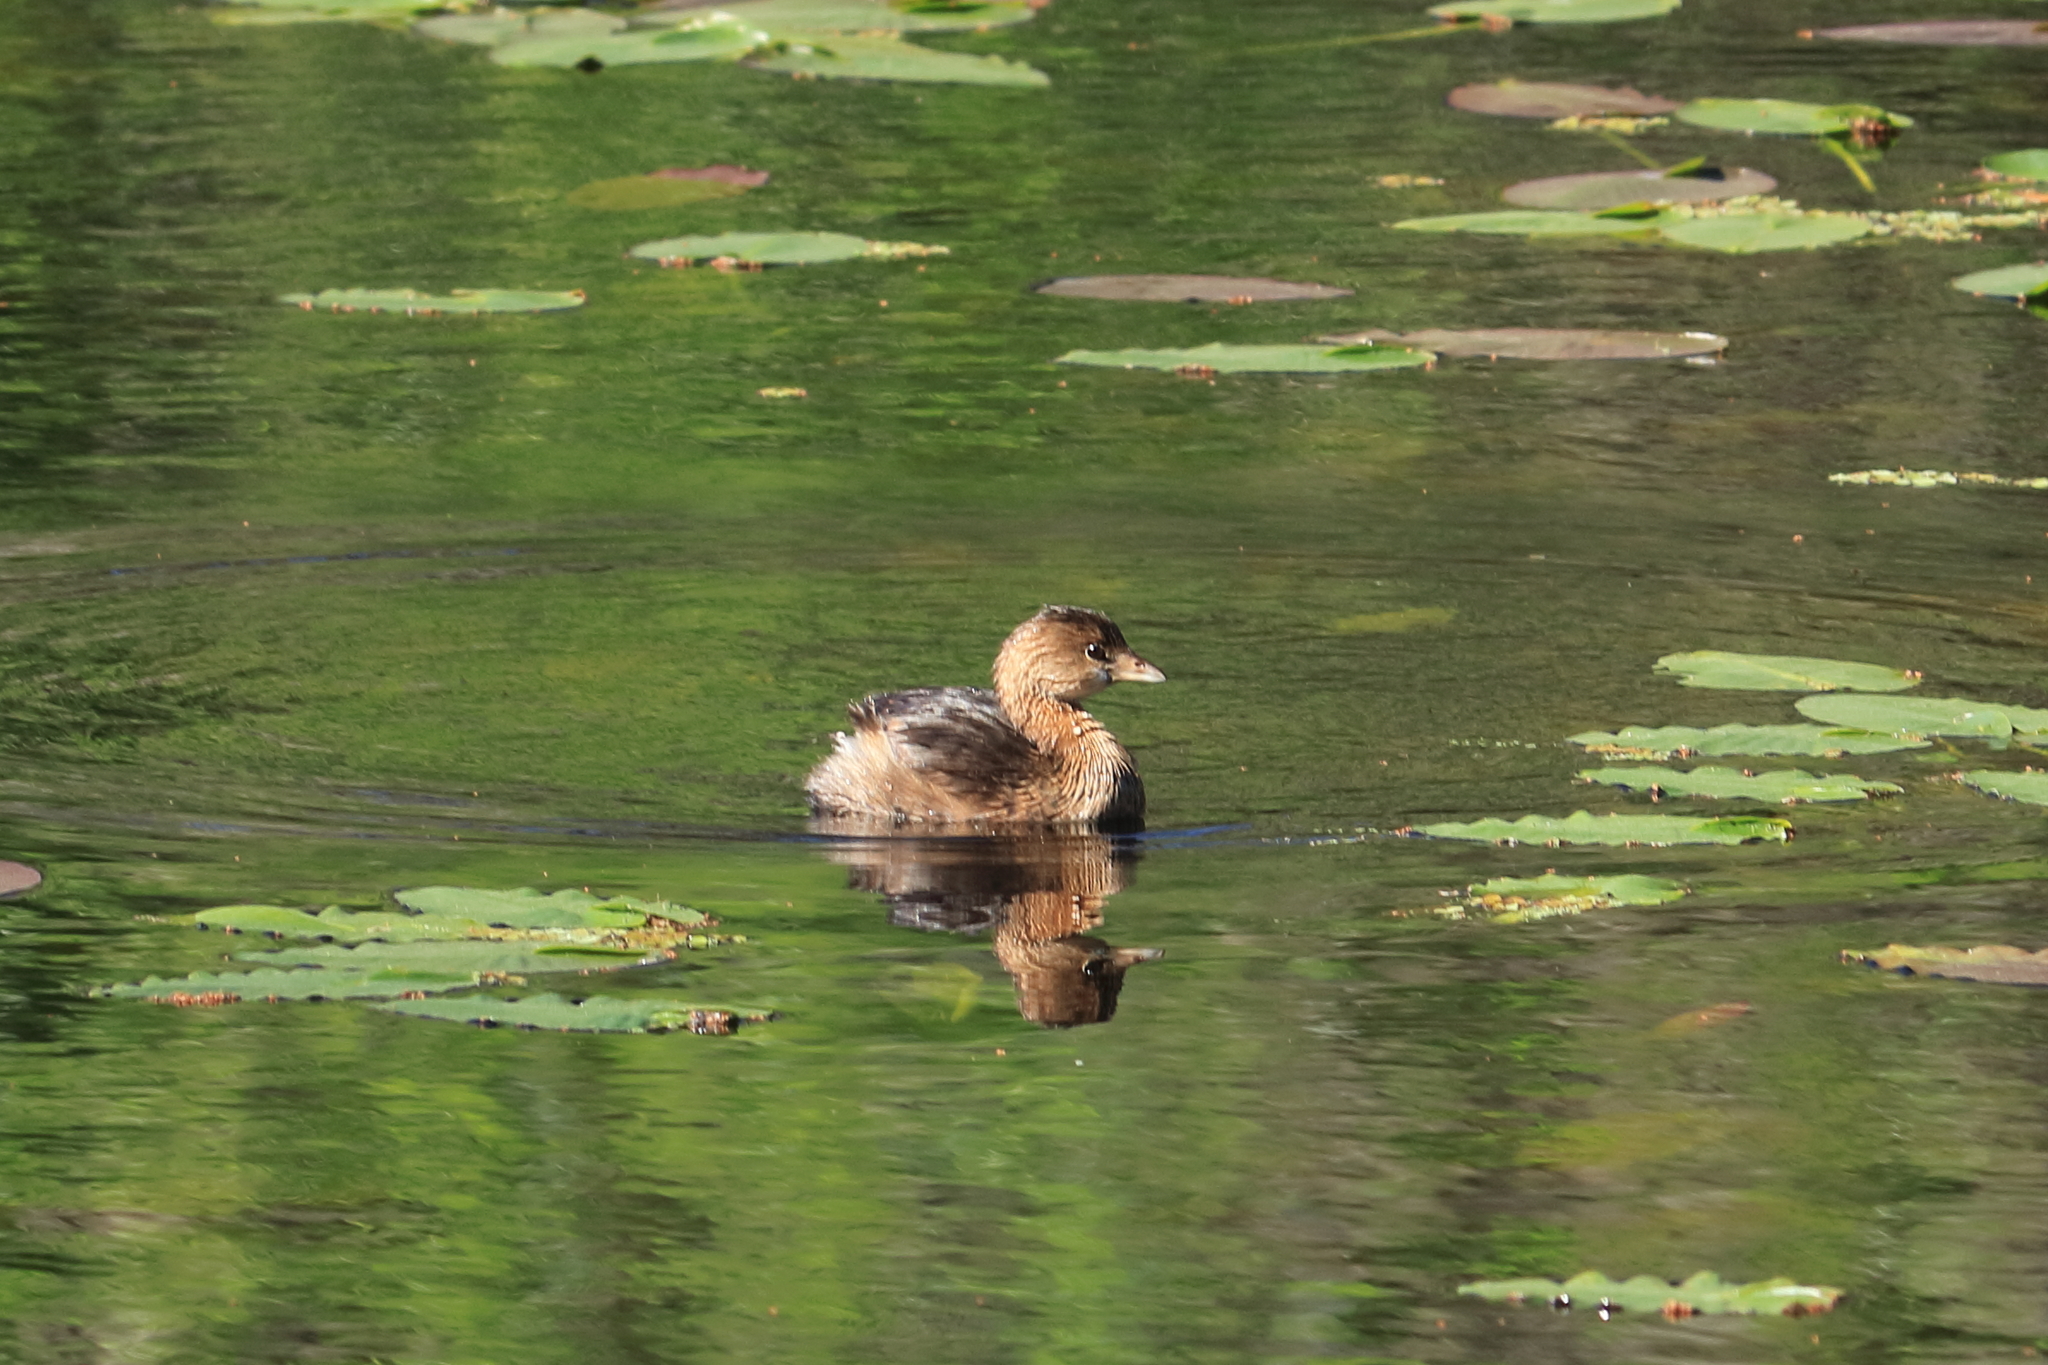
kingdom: Animalia
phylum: Chordata
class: Aves
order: Podicipediformes
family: Podicipedidae
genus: Podilymbus
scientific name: Podilymbus podiceps
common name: Pied-billed grebe
